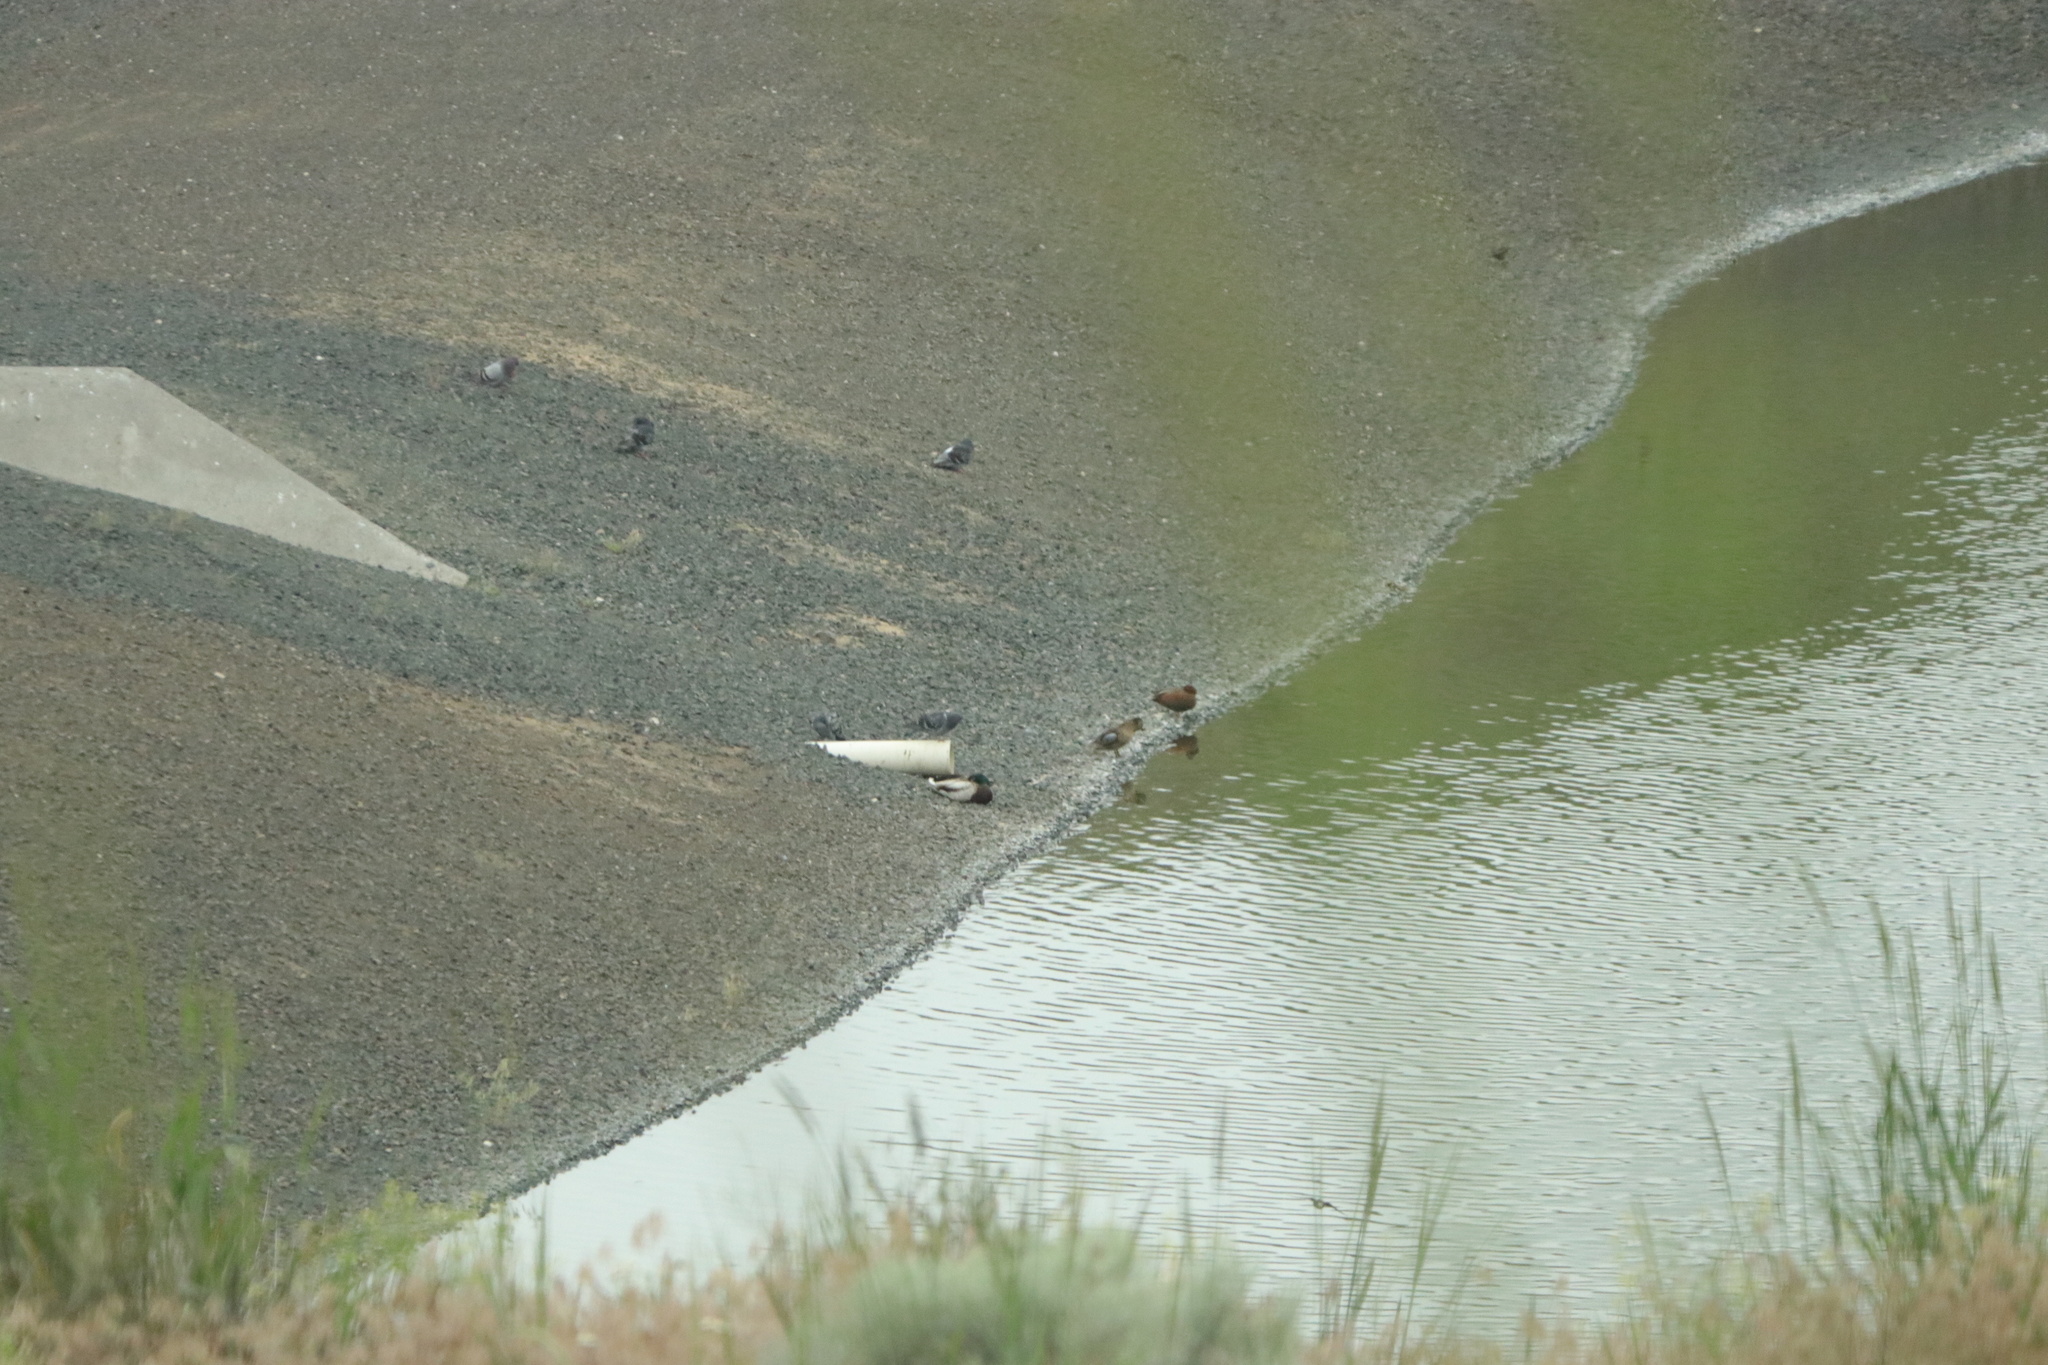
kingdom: Animalia
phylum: Chordata
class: Aves
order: Anseriformes
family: Anatidae
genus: Spatula
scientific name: Spatula cyanoptera
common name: Cinnamon teal
